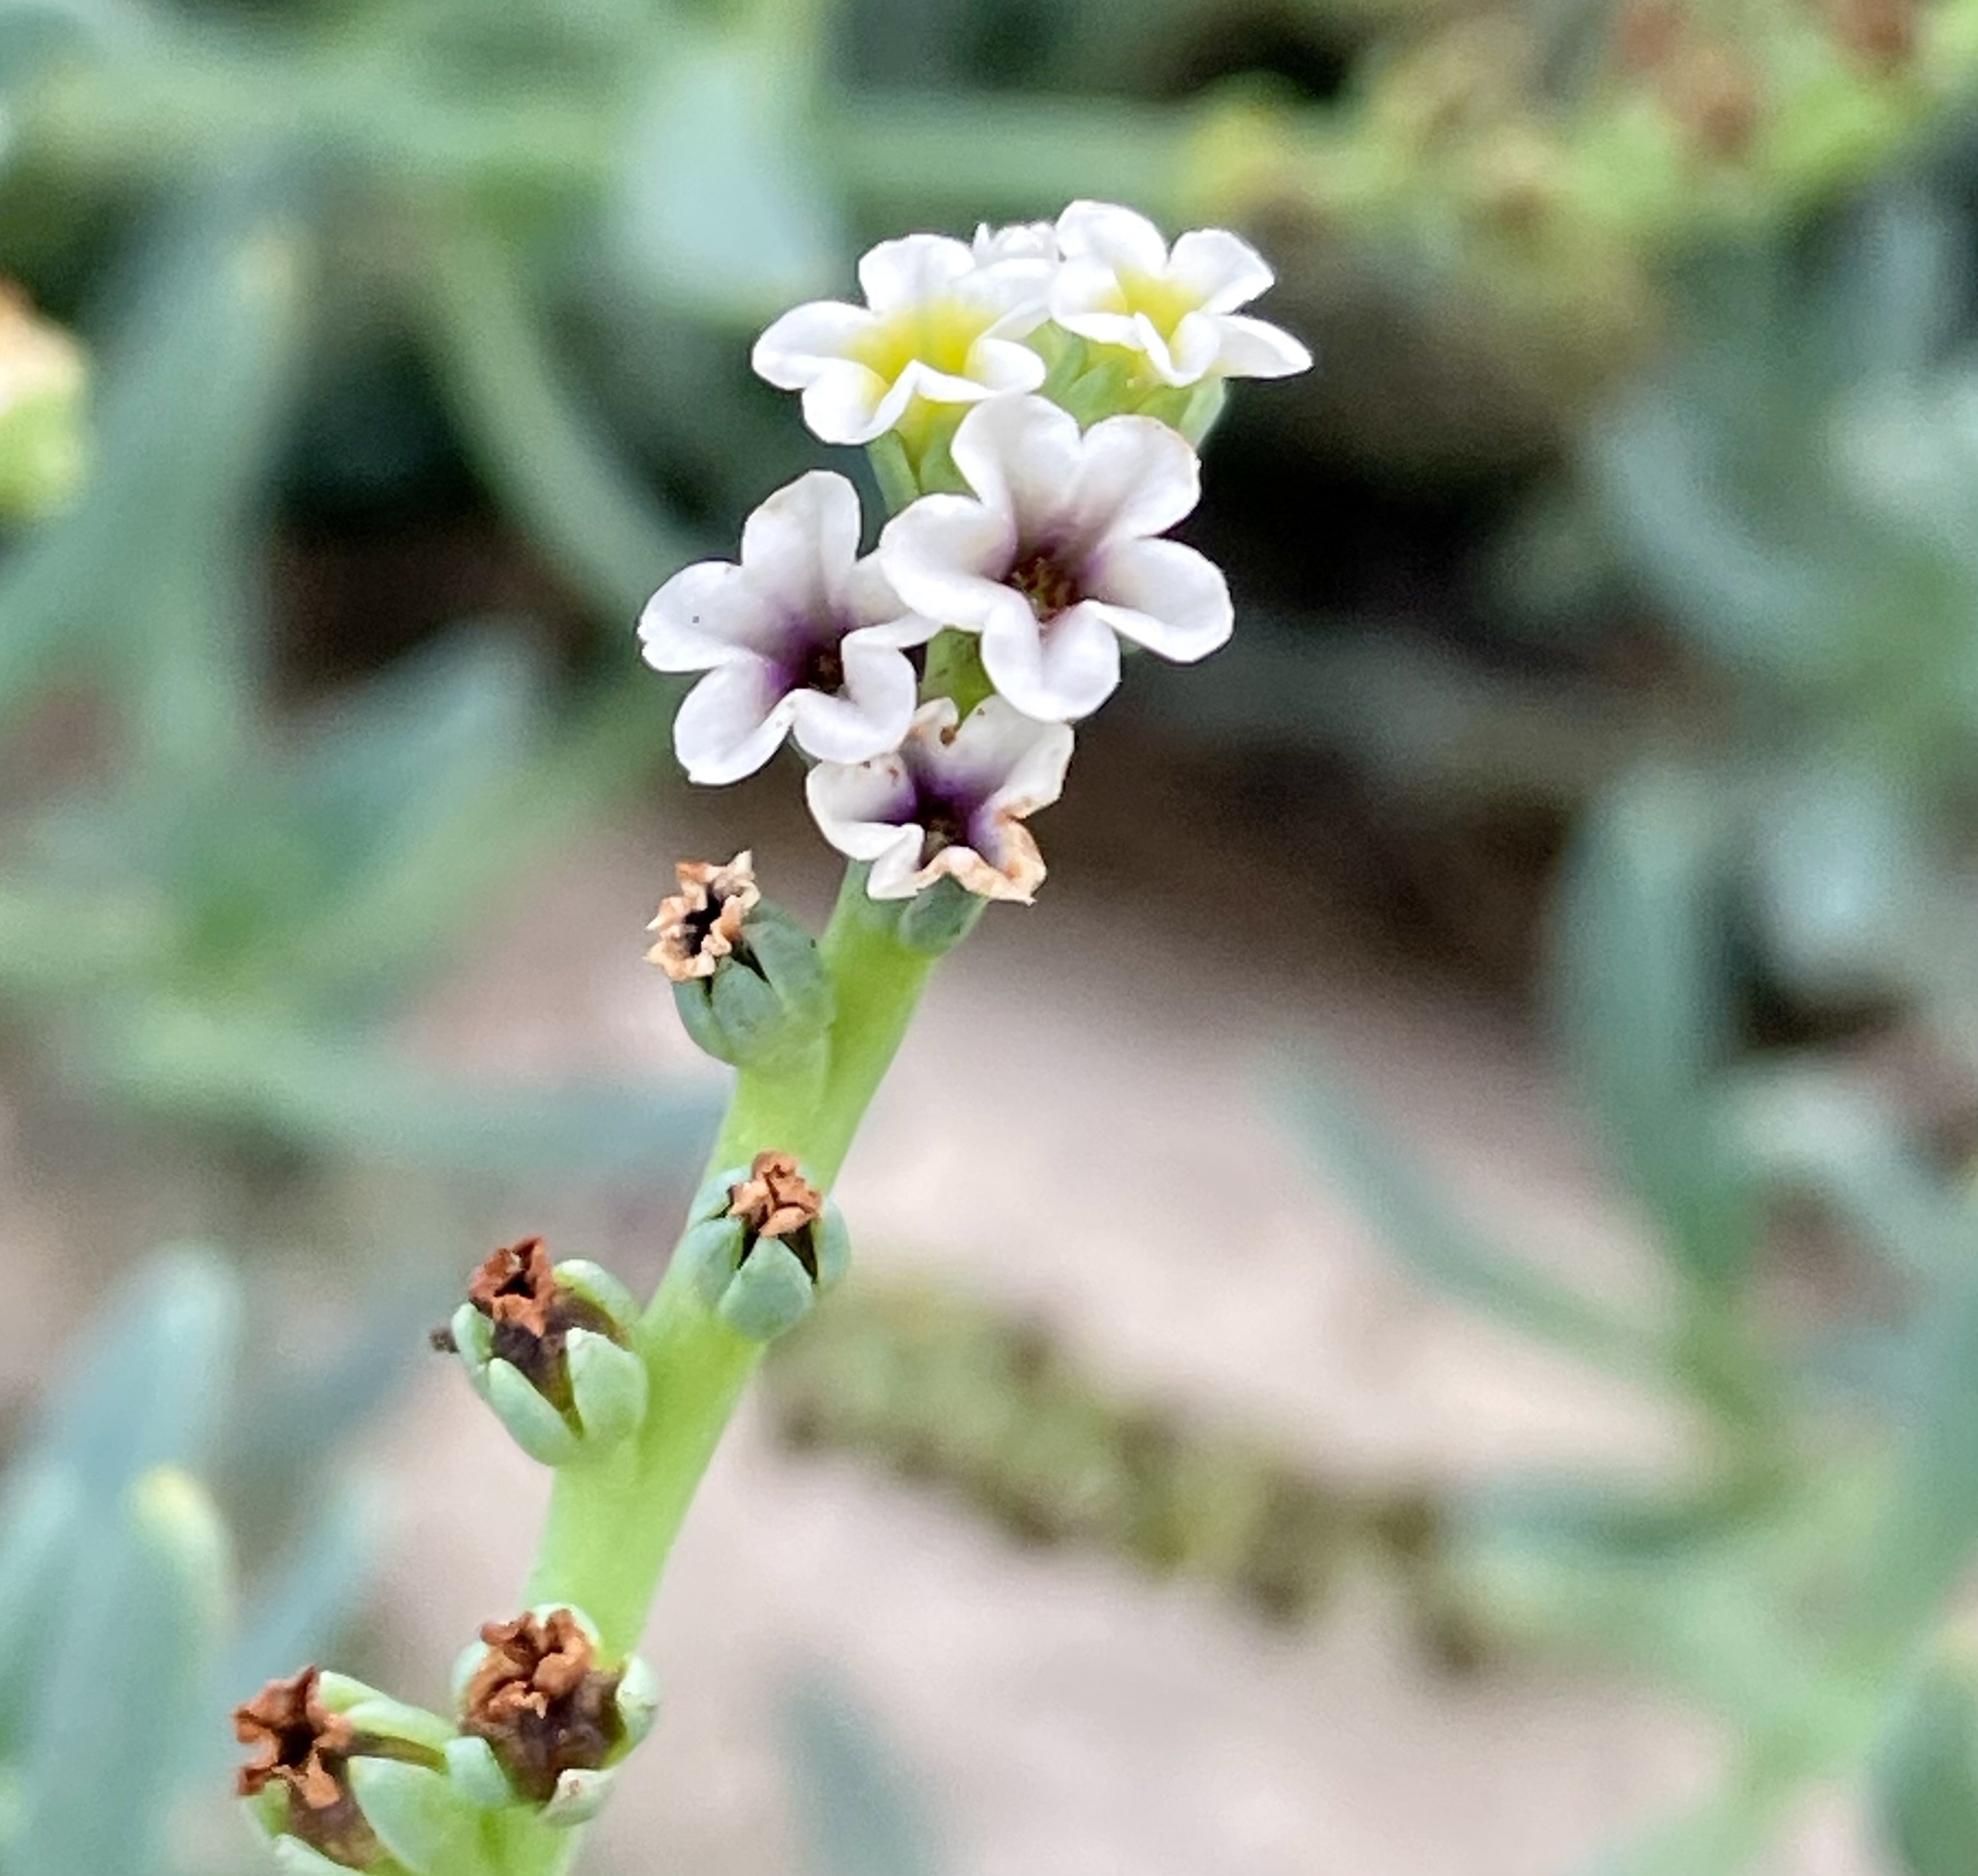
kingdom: Plantae
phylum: Tracheophyta
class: Magnoliopsida
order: Boraginales
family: Heliotropiaceae
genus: Heliotropium
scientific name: Heliotropium curassavicum
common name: Seaside heliotrope
